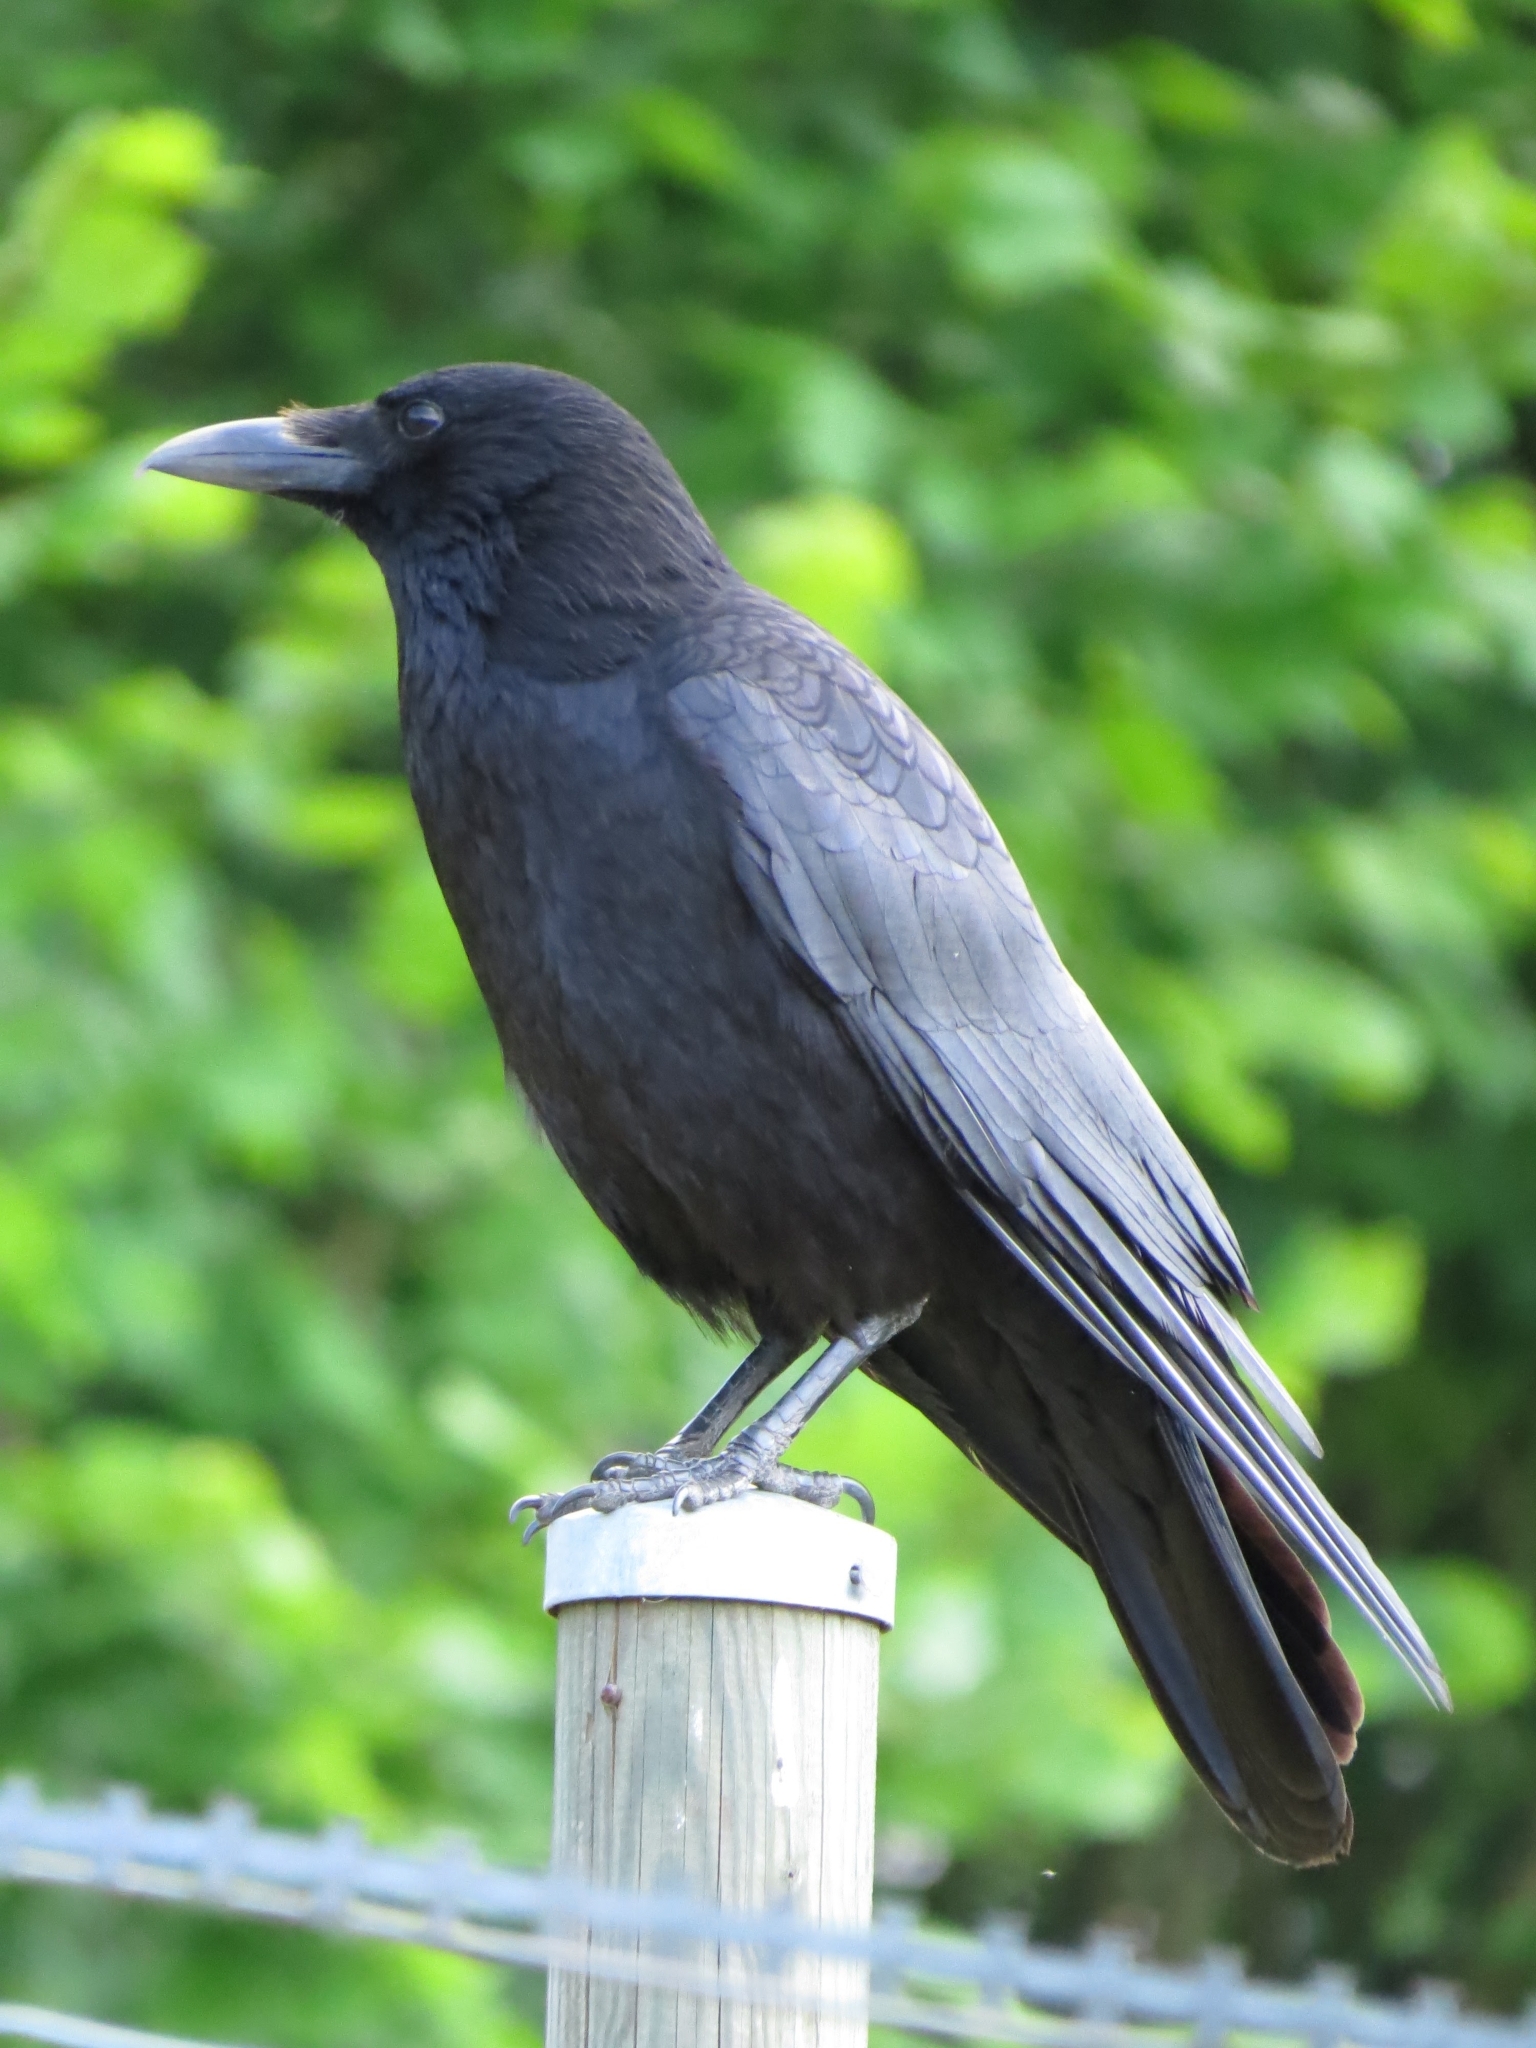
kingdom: Animalia
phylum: Chordata
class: Aves
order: Passeriformes
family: Corvidae
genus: Corvus
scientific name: Corvus corone
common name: Carrion crow
